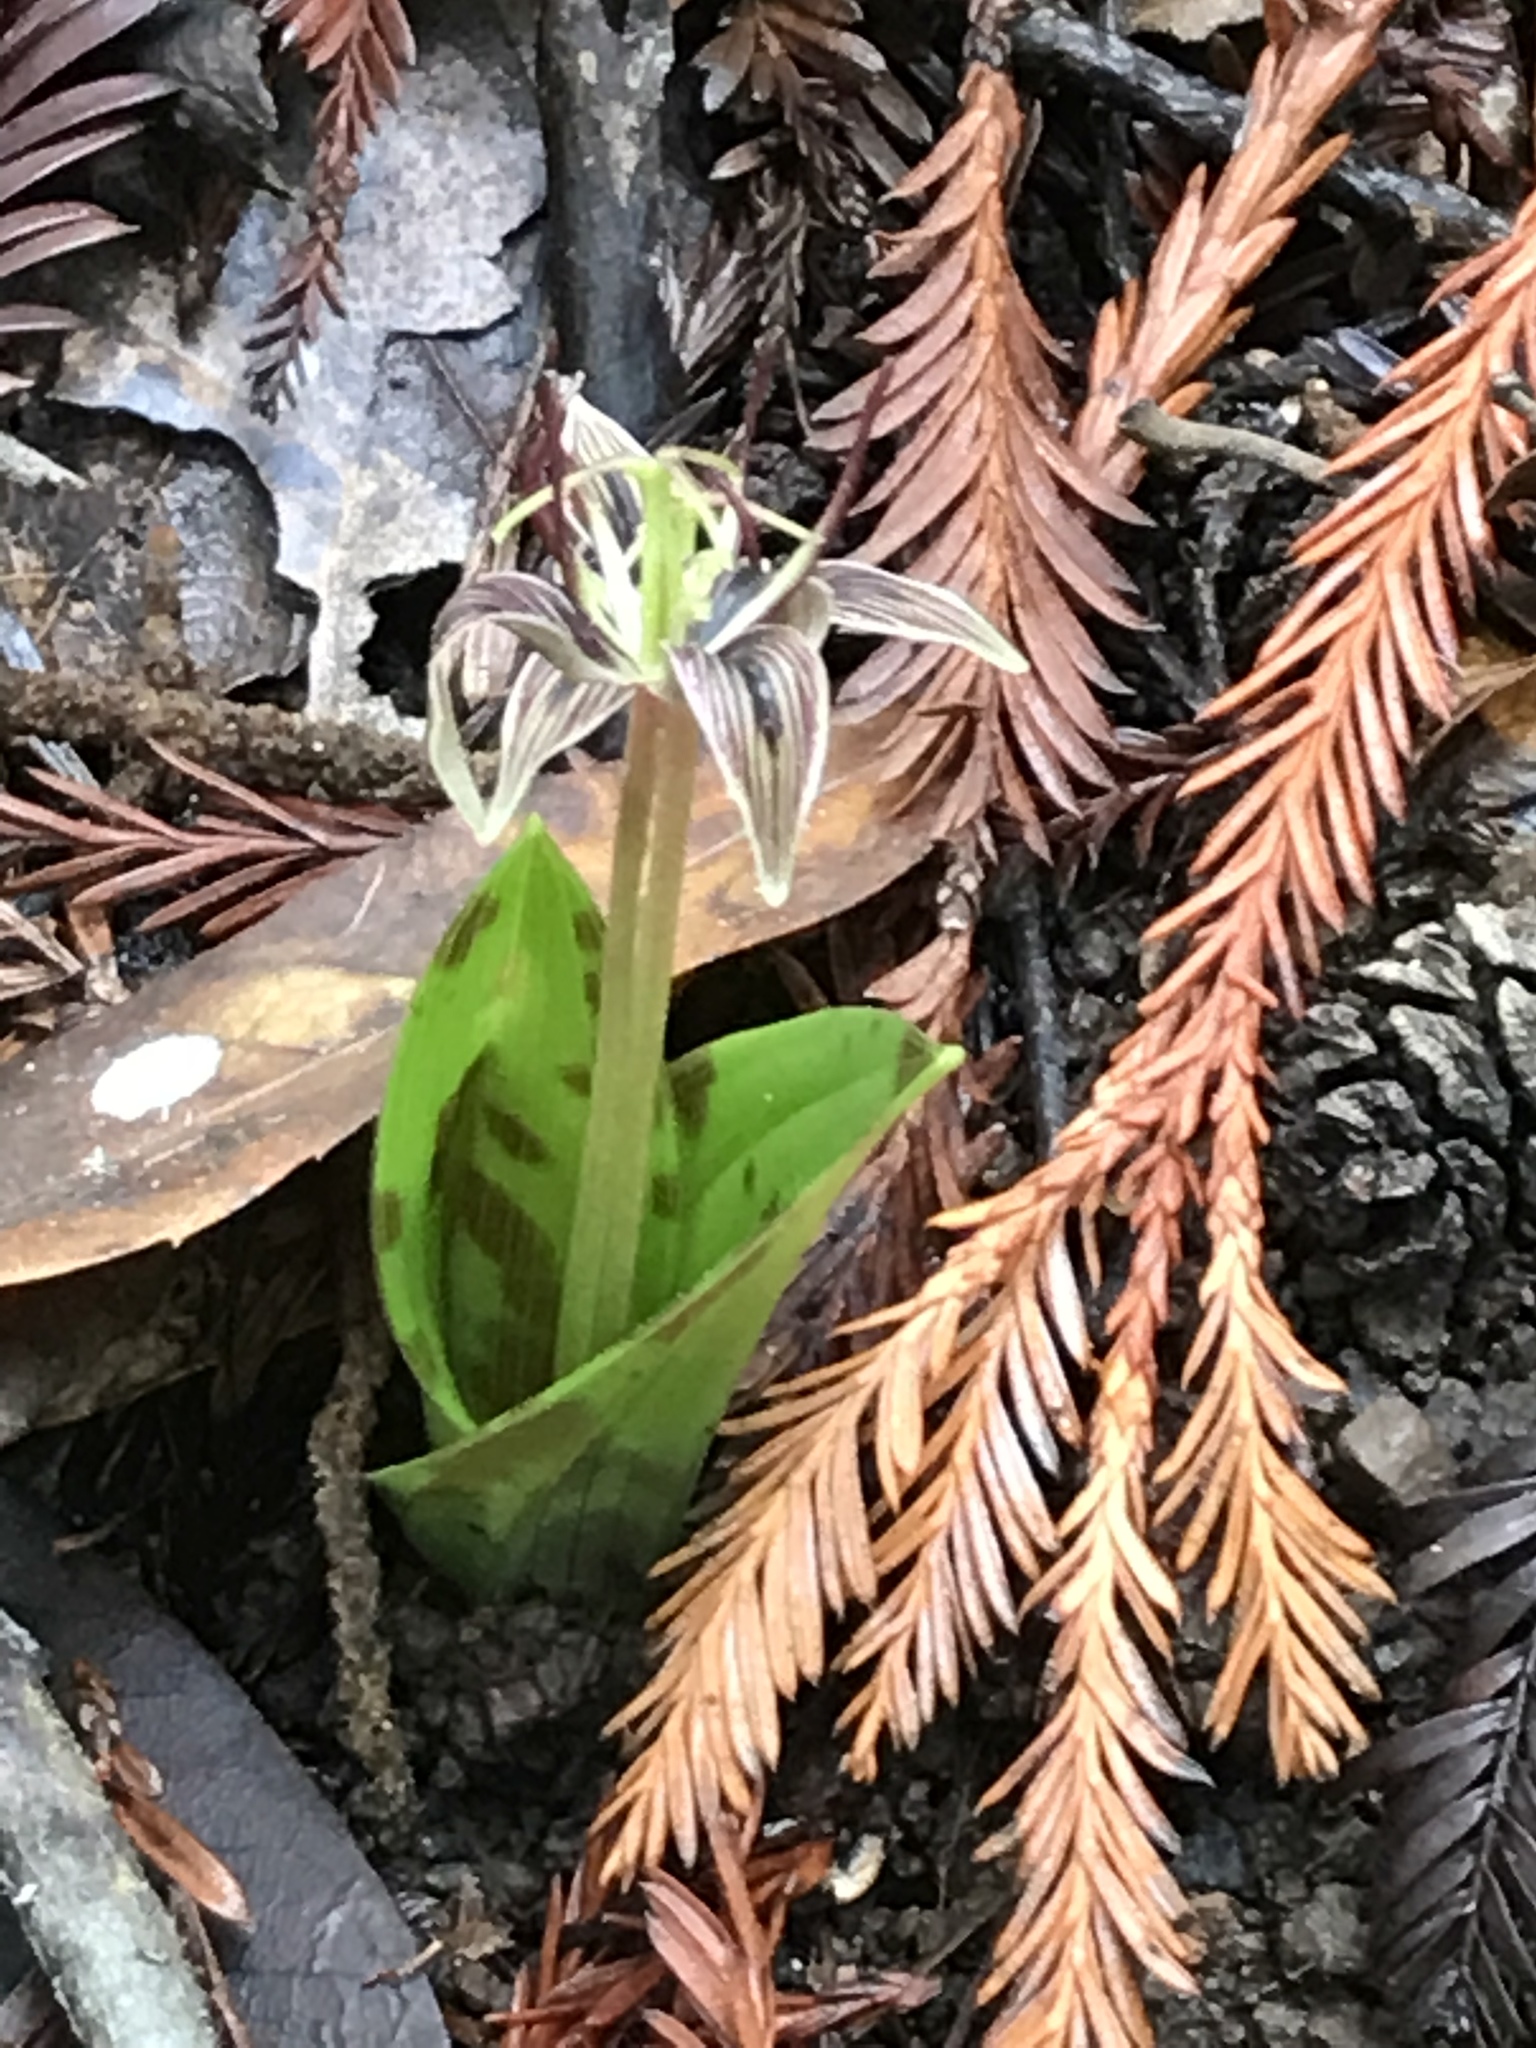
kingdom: Plantae
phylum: Tracheophyta
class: Liliopsida
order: Liliales
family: Liliaceae
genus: Scoliopus
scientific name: Scoliopus bigelovii
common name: Foetid adder's-tongue
